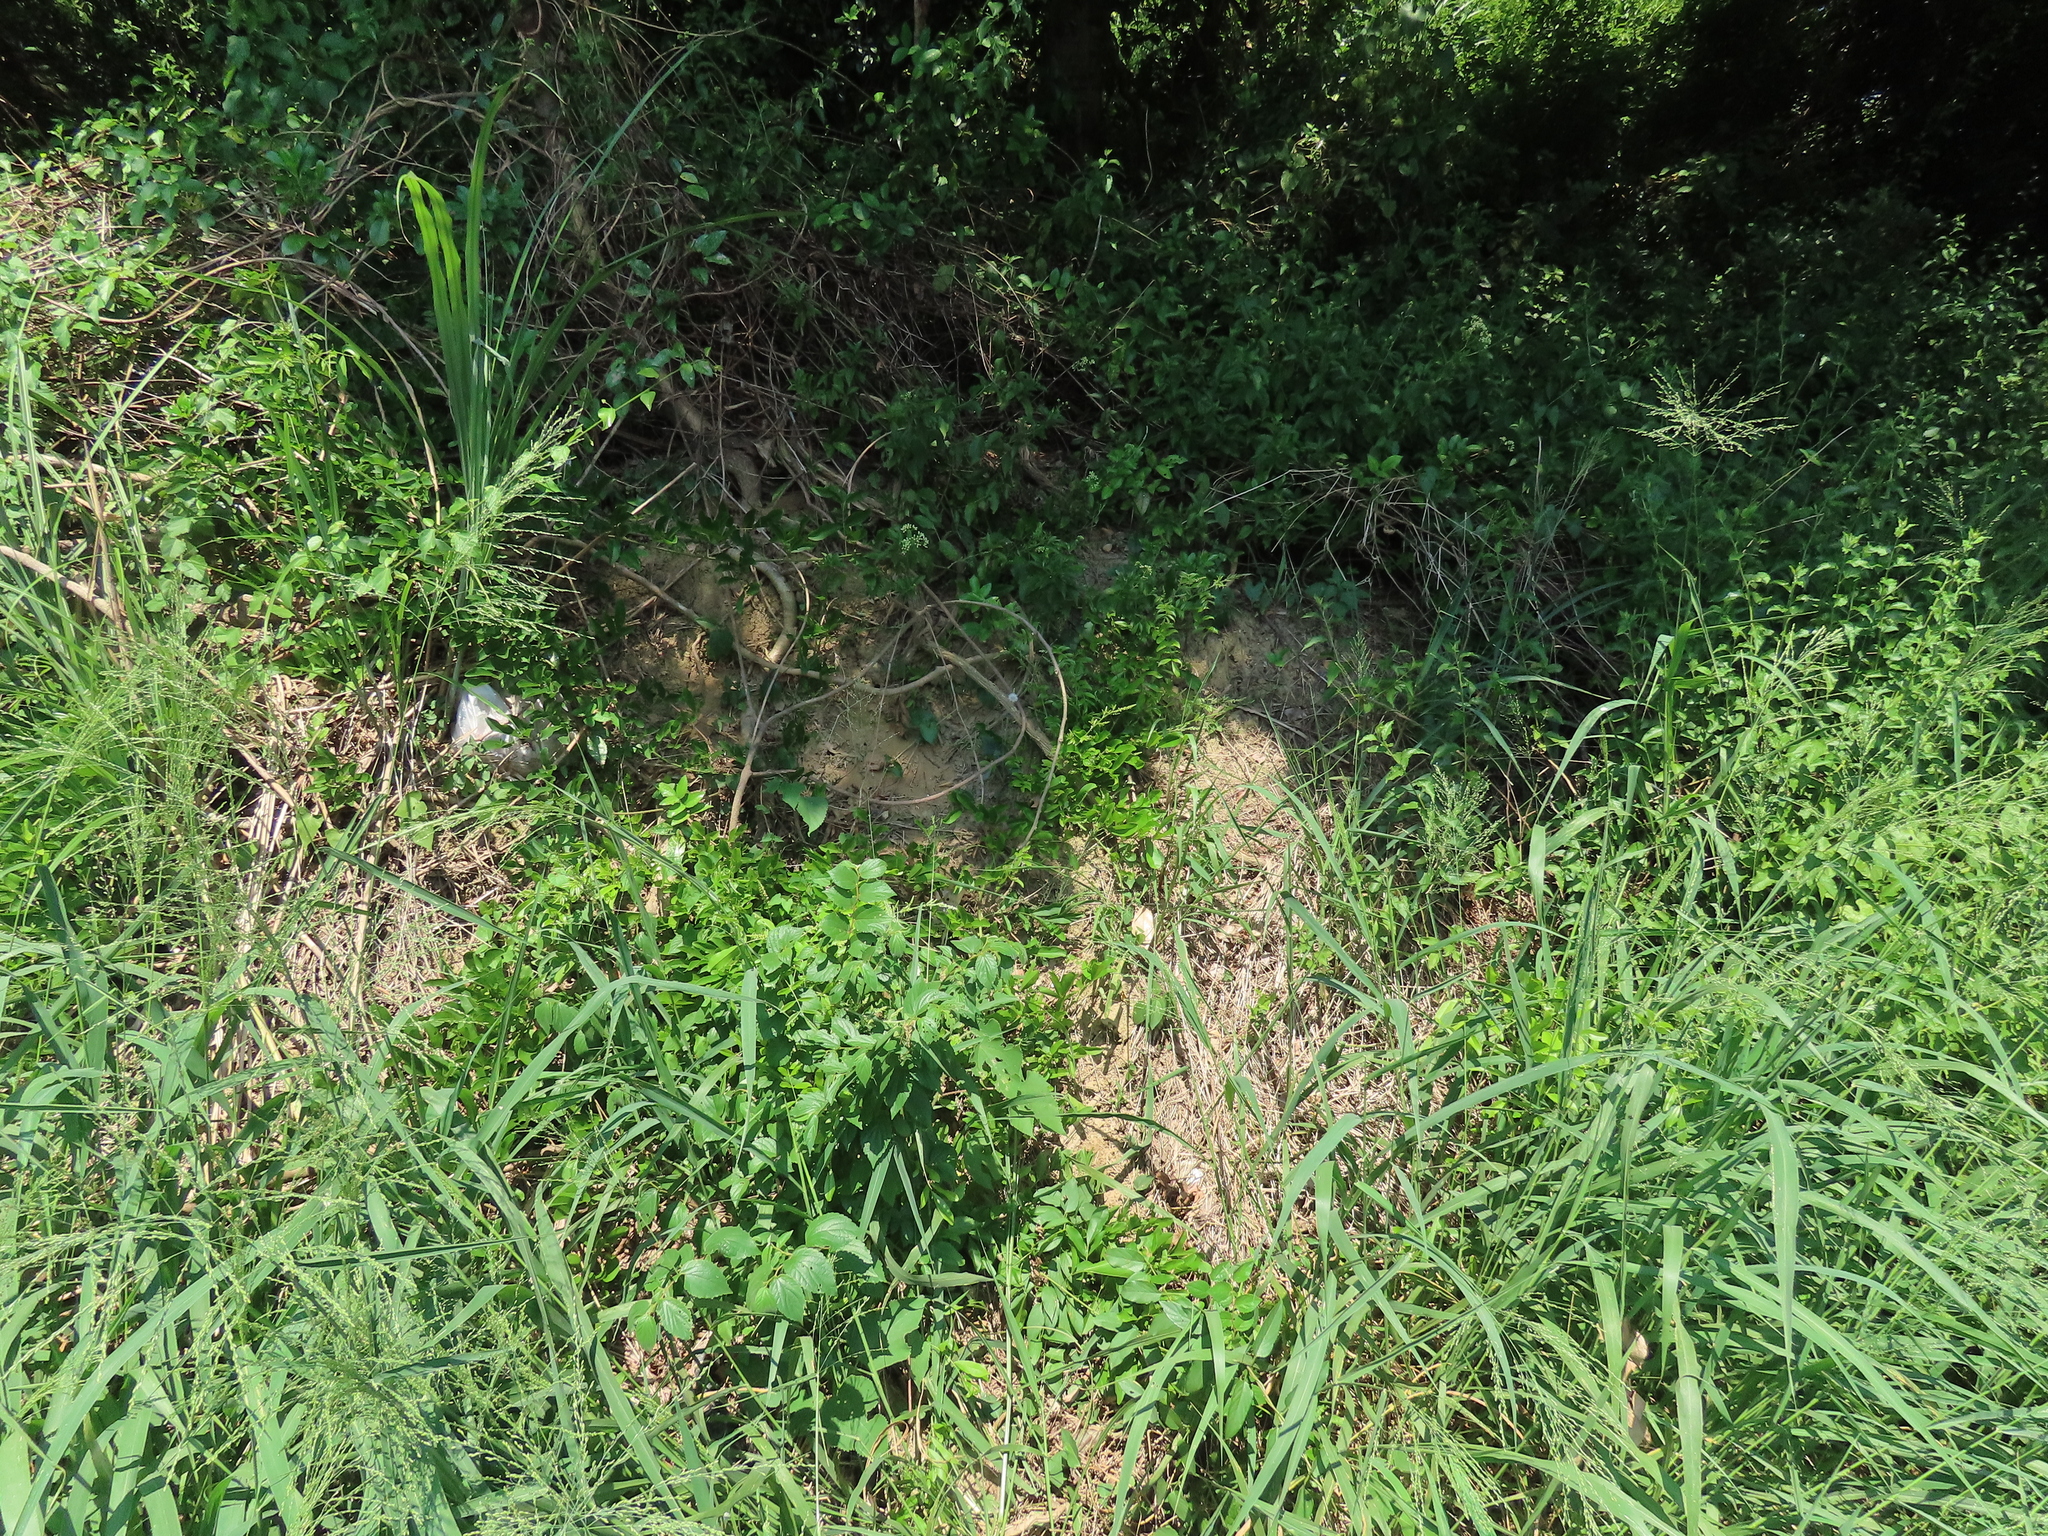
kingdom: Plantae
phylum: Tracheophyta
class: Magnoliopsida
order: Fabales
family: Fabaceae
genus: Callerya
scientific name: Callerya nitida
